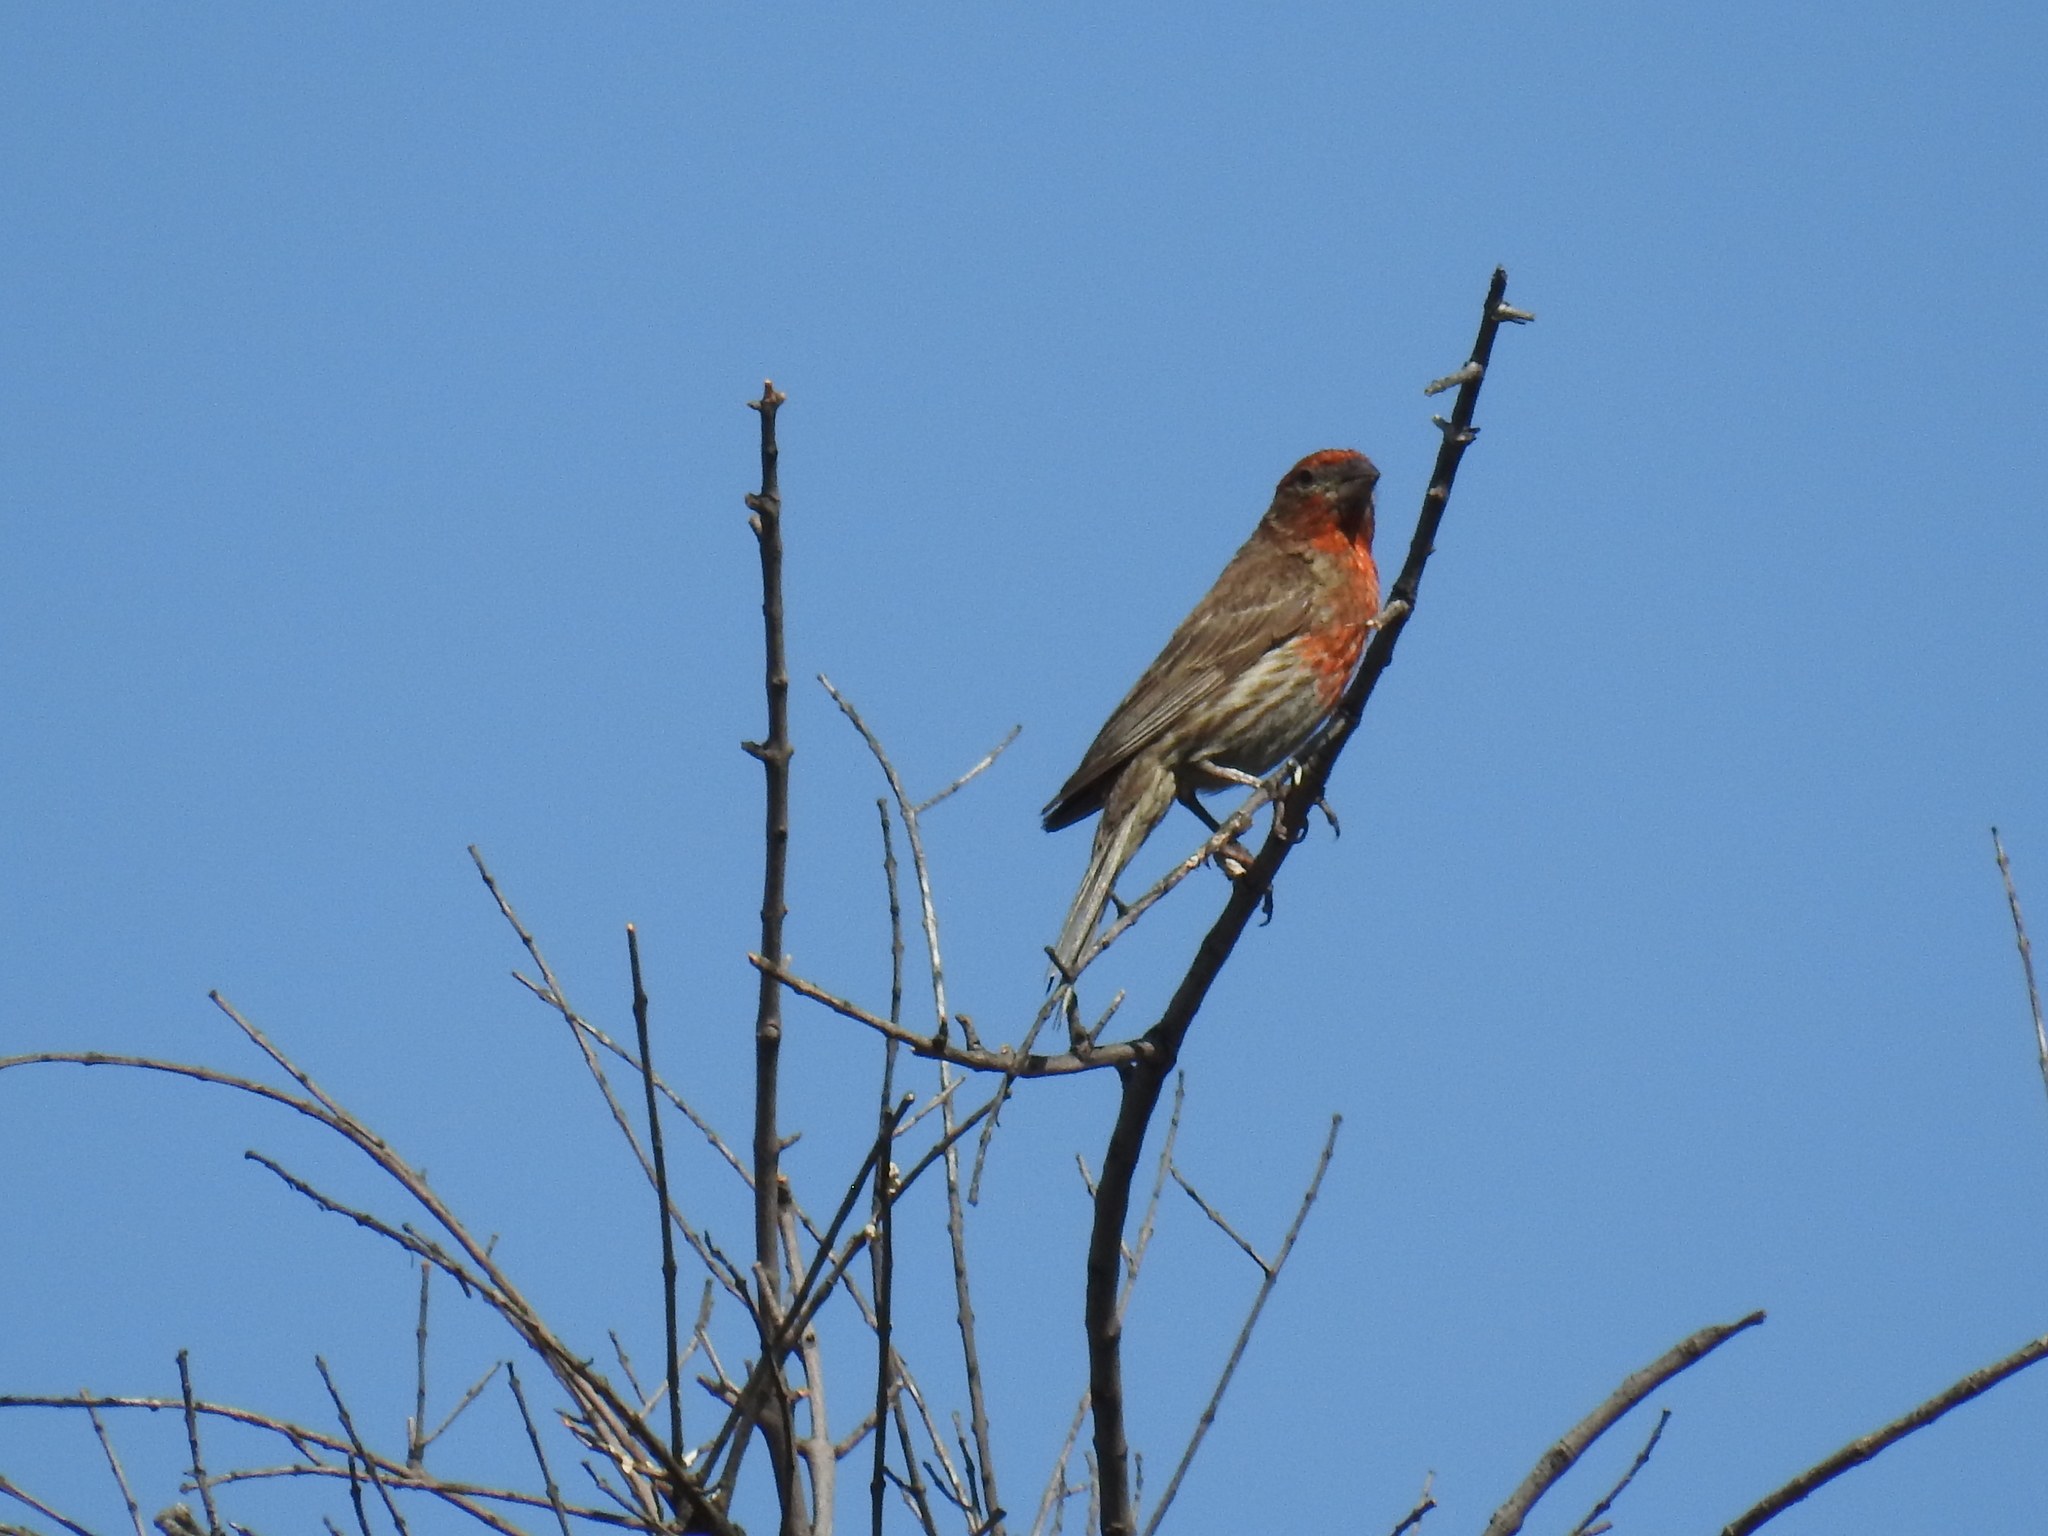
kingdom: Animalia
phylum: Chordata
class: Aves
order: Passeriformes
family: Fringillidae
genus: Haemorhous
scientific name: Haemorhous mexicanus
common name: House finch
